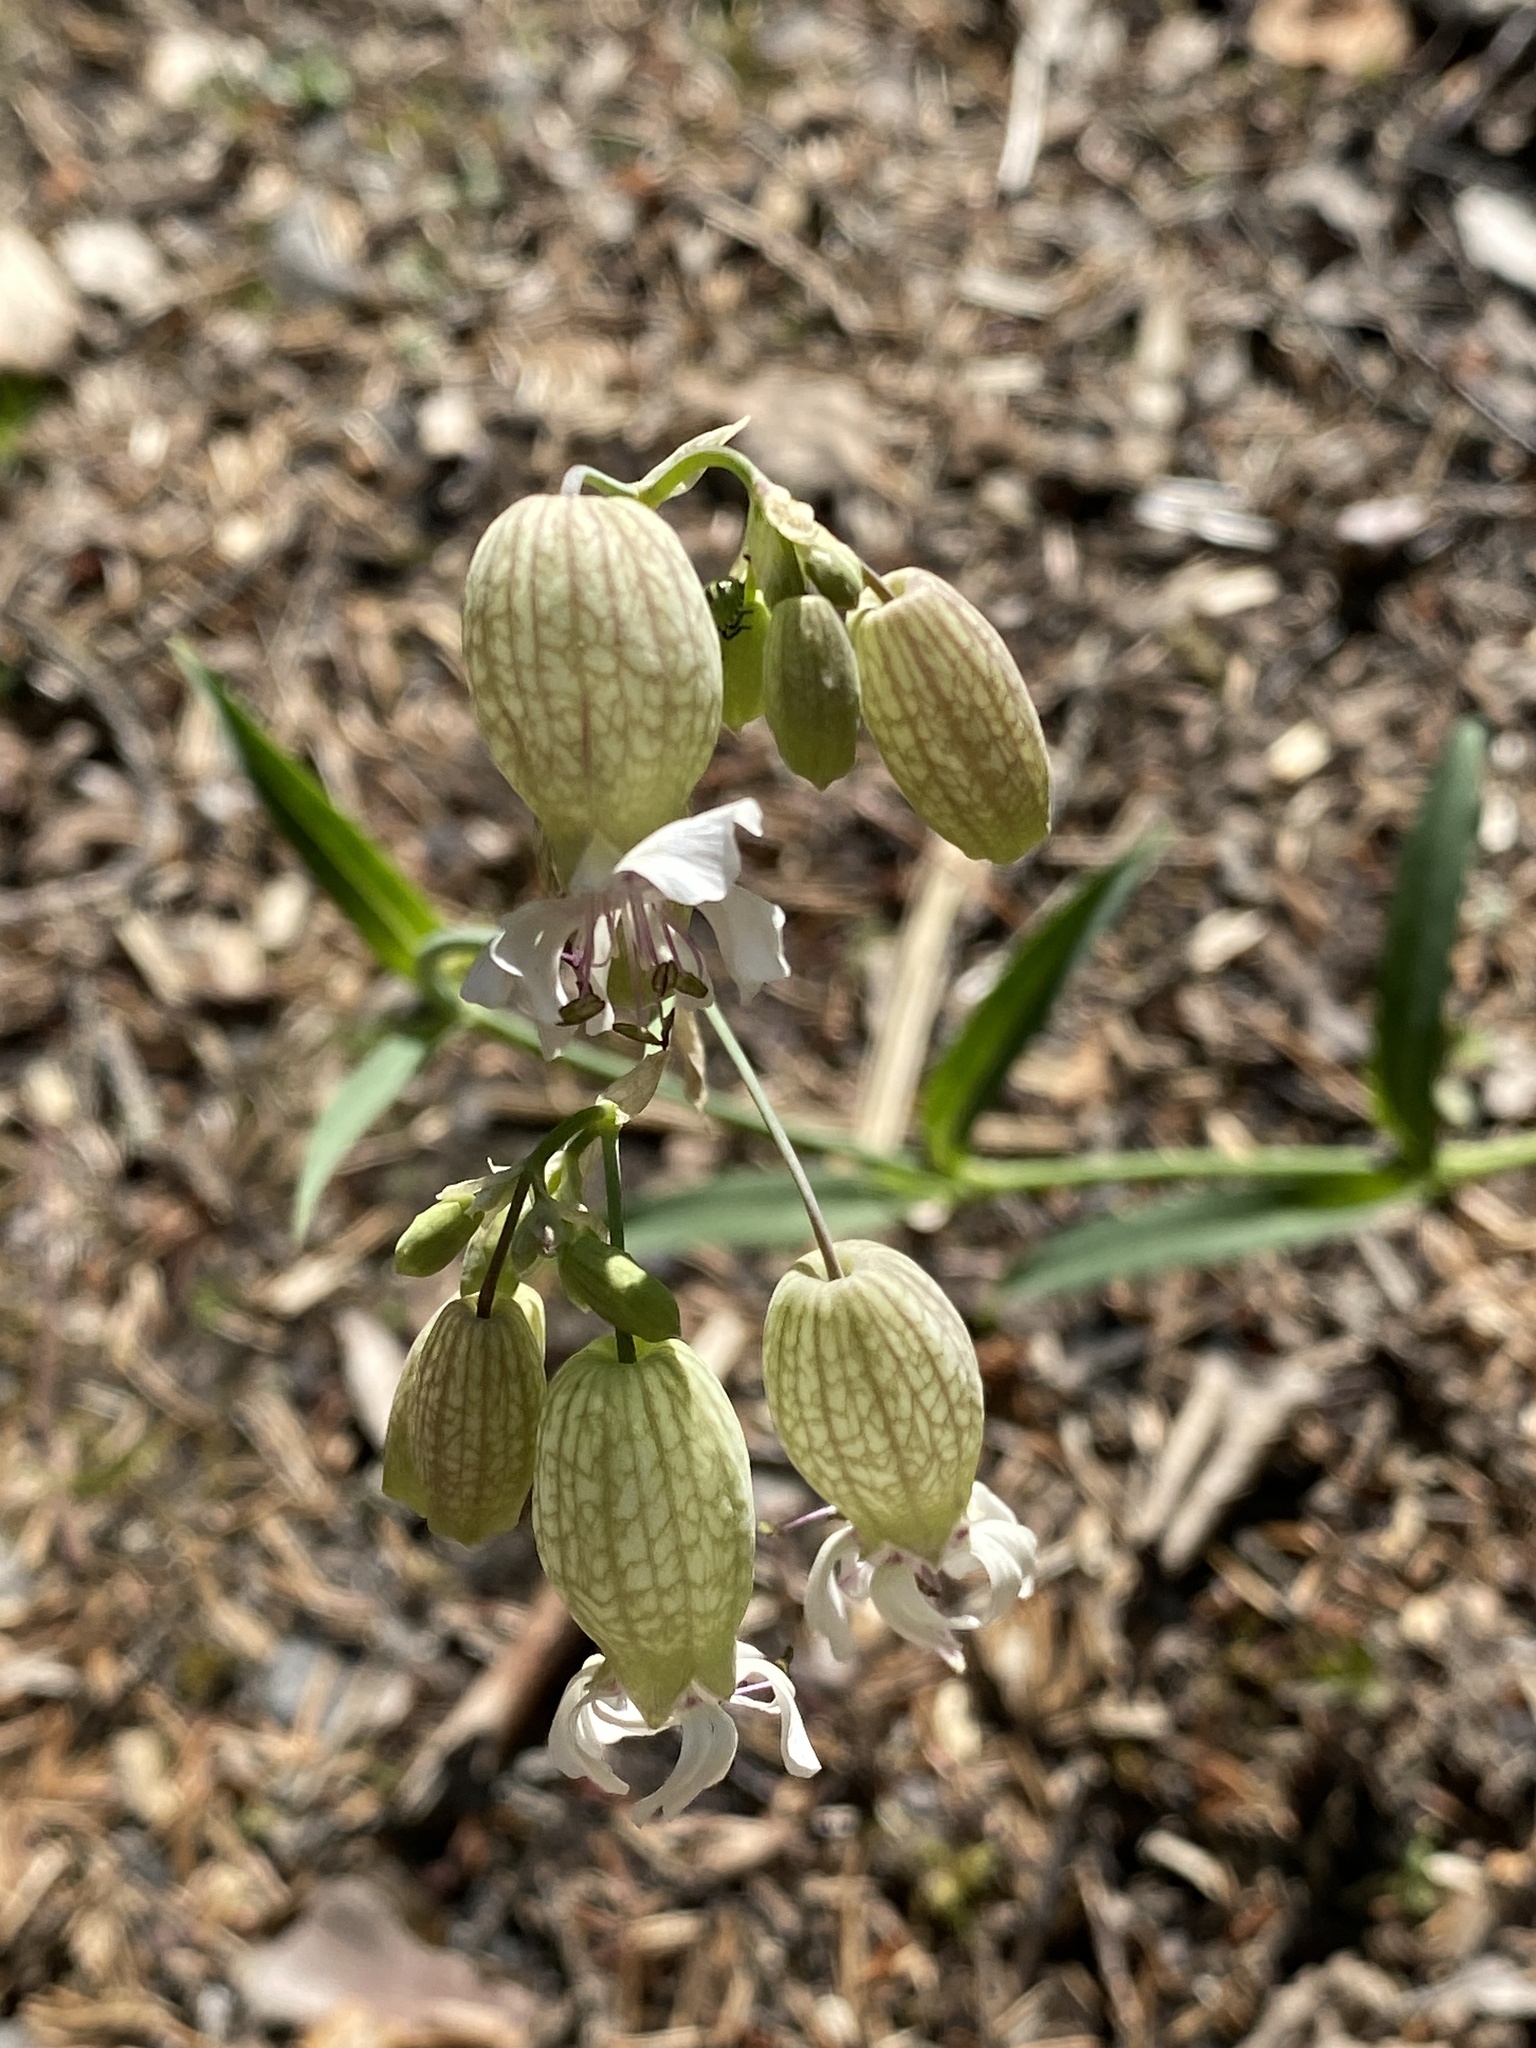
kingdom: Plantae
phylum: Tracheophyta
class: Magnoliopsida
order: Caryophyllales
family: Caryophyllaceae
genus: Silene
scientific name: Silene vulgaris
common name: Bladder campion
